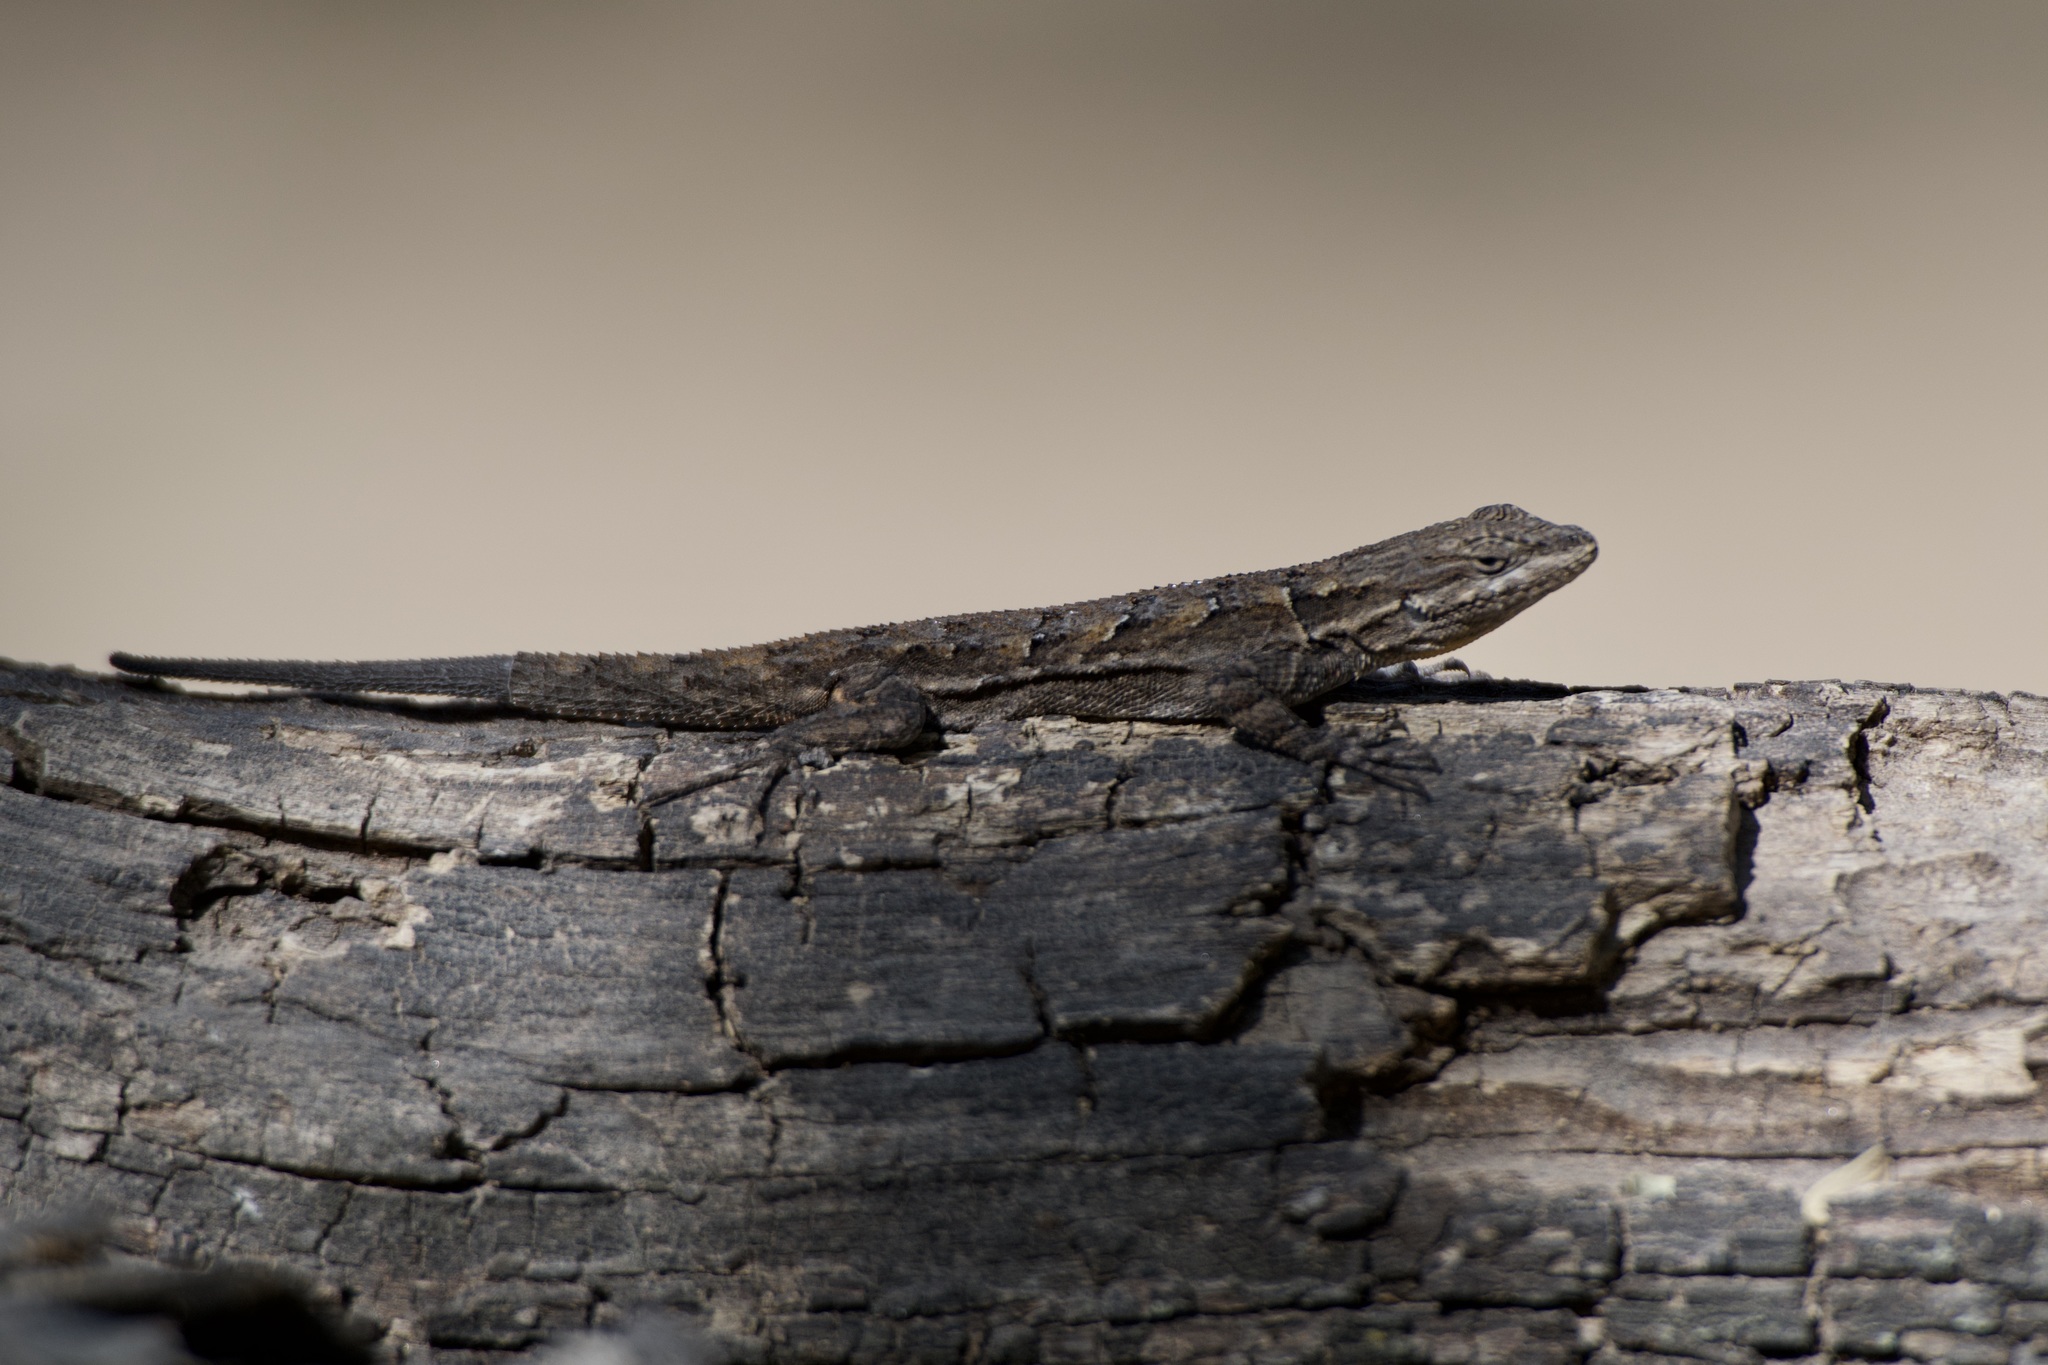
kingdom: Animalia
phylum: Chordata
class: Squamata
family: Phrynosomatidae
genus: Urosaurus
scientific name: Urosaurus ornatus
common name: Ornate tree lizard
